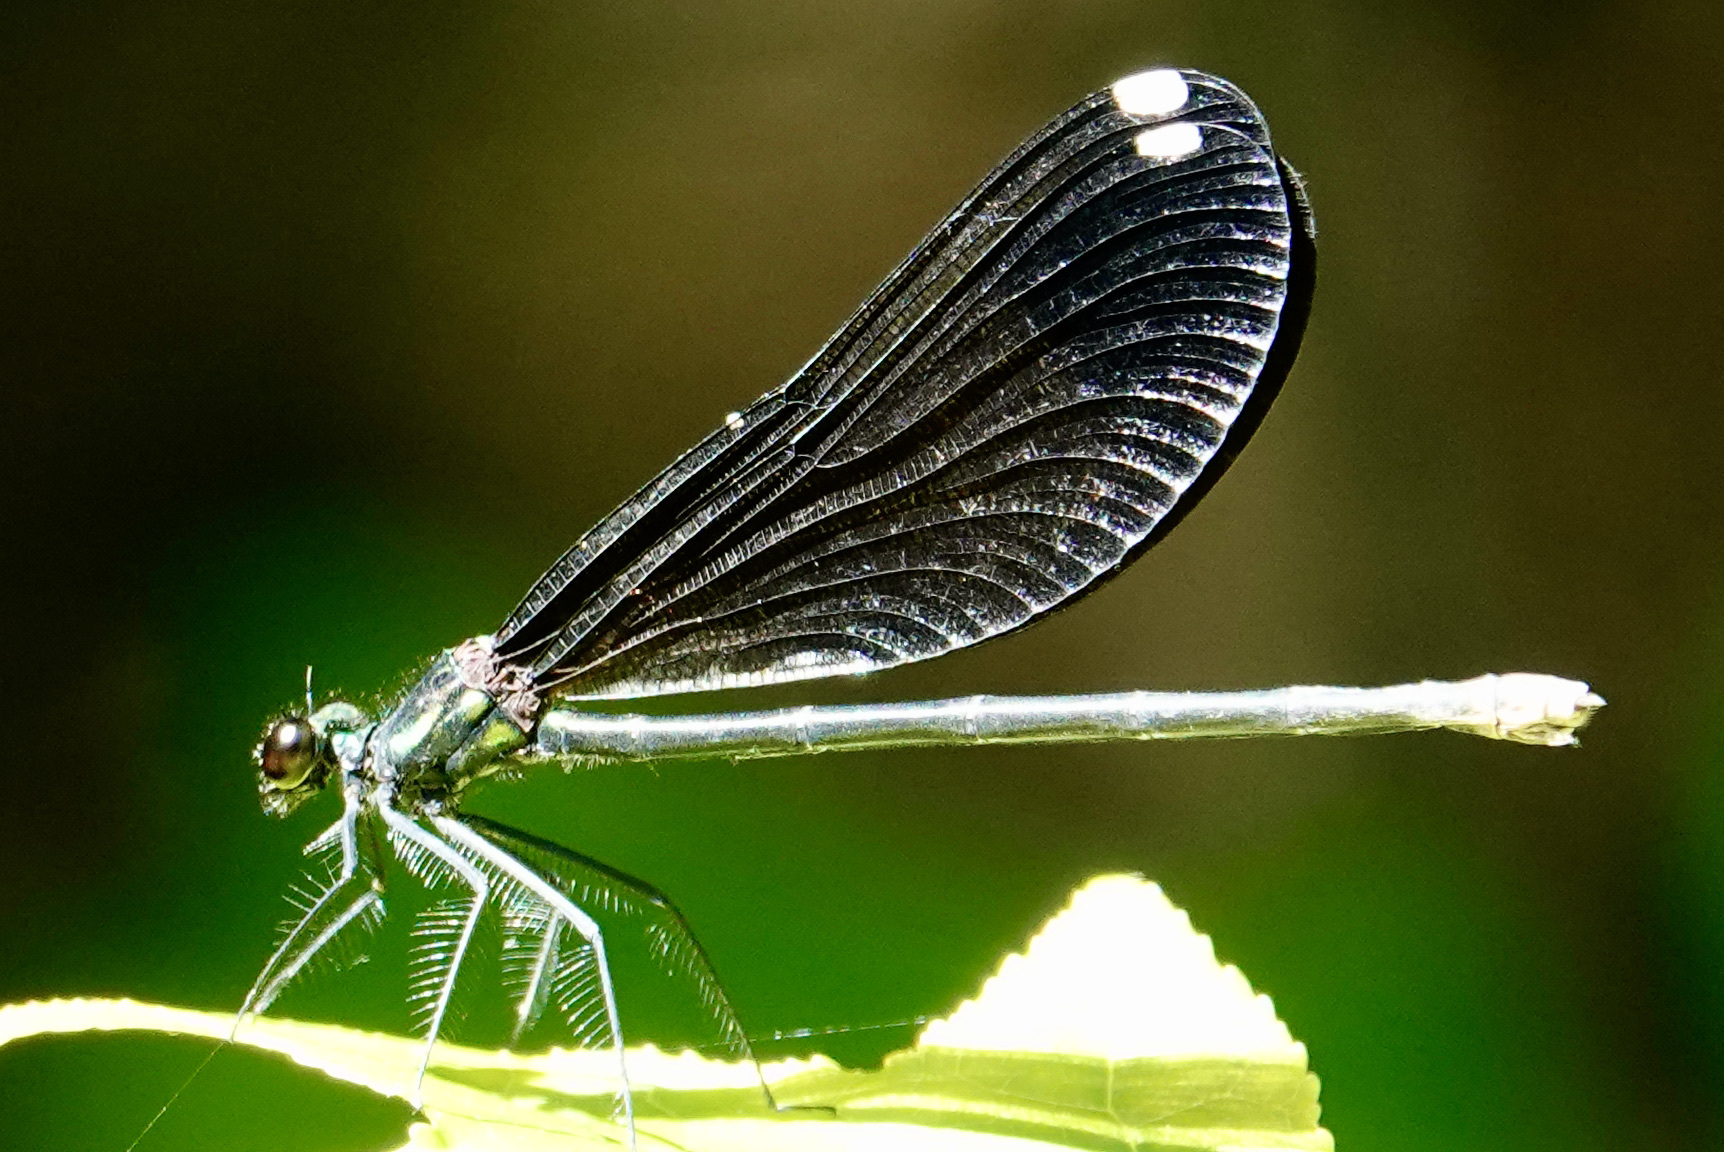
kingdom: Animalia
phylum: Arthropoda
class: Insecta
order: Odonata
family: Calopterygidae
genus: Calopteryx
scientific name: Calopteryx maculata
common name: Ebony jewelwing
